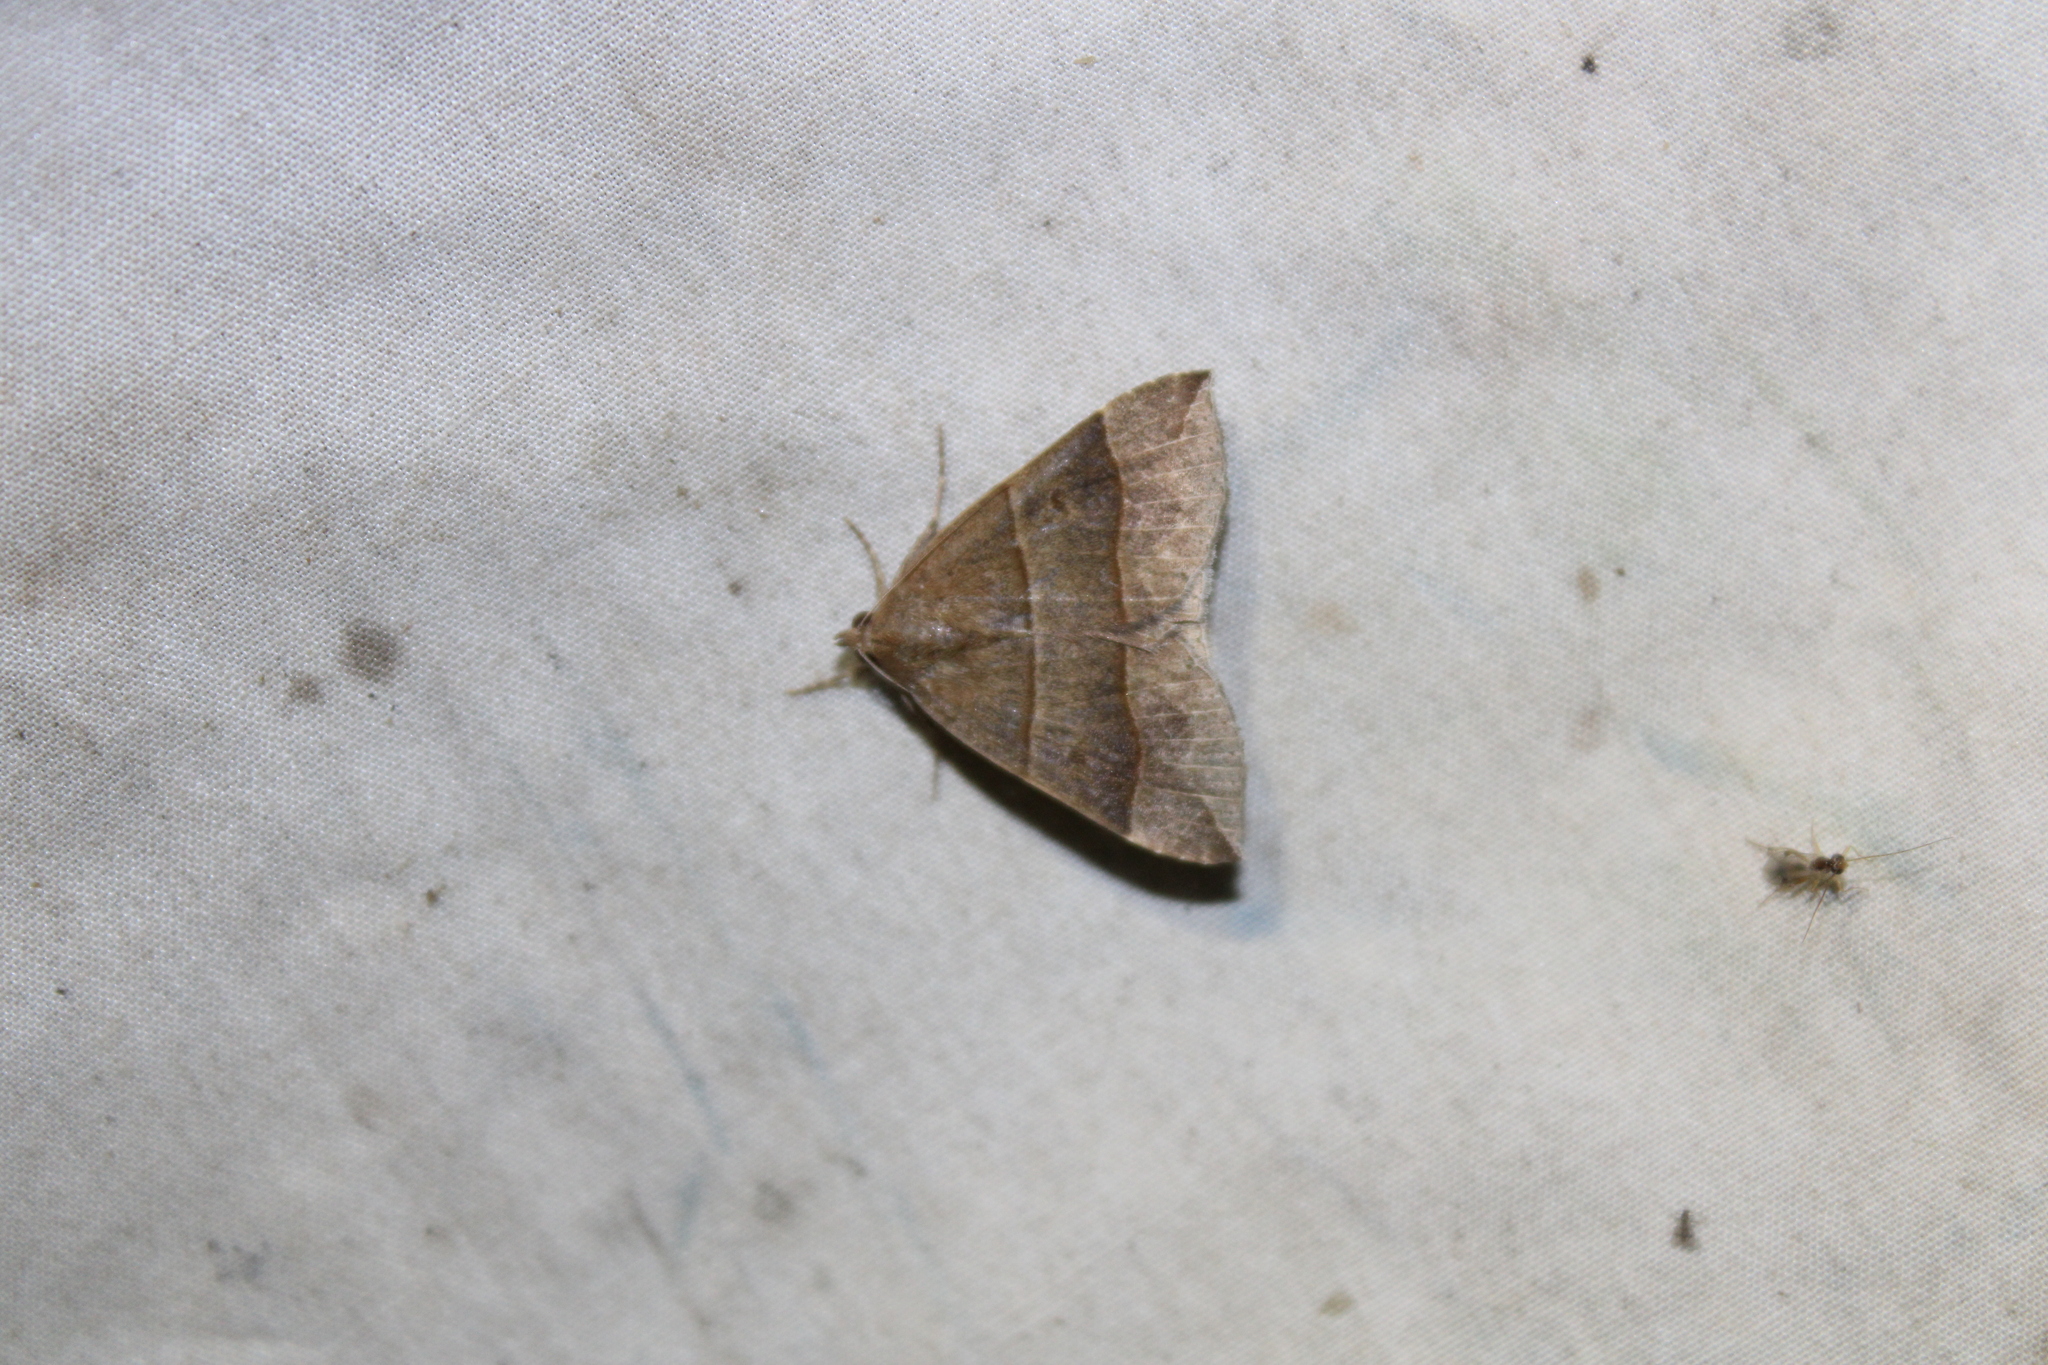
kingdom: Animalia
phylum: Arthropoda
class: Insecta
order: Lepidoptera
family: Erebidae
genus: Parallelia
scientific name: Parallelia bistriaris
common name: Maple looper moth
